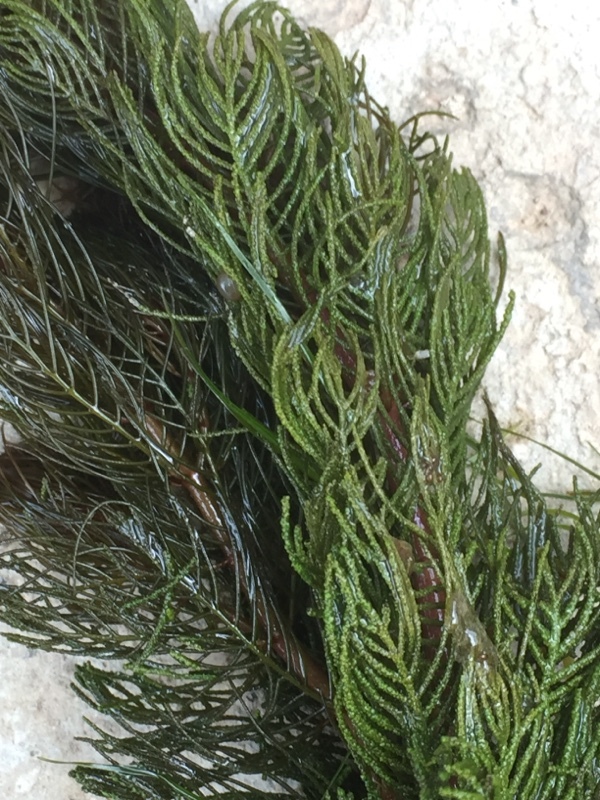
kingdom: Plantae
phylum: Tracheophyta
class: Magnoliopsida
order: Saxifragales
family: Haloragaceae
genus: Myriophyllum
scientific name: Myriophyllum spicatum
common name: Spiked water-milfoil
